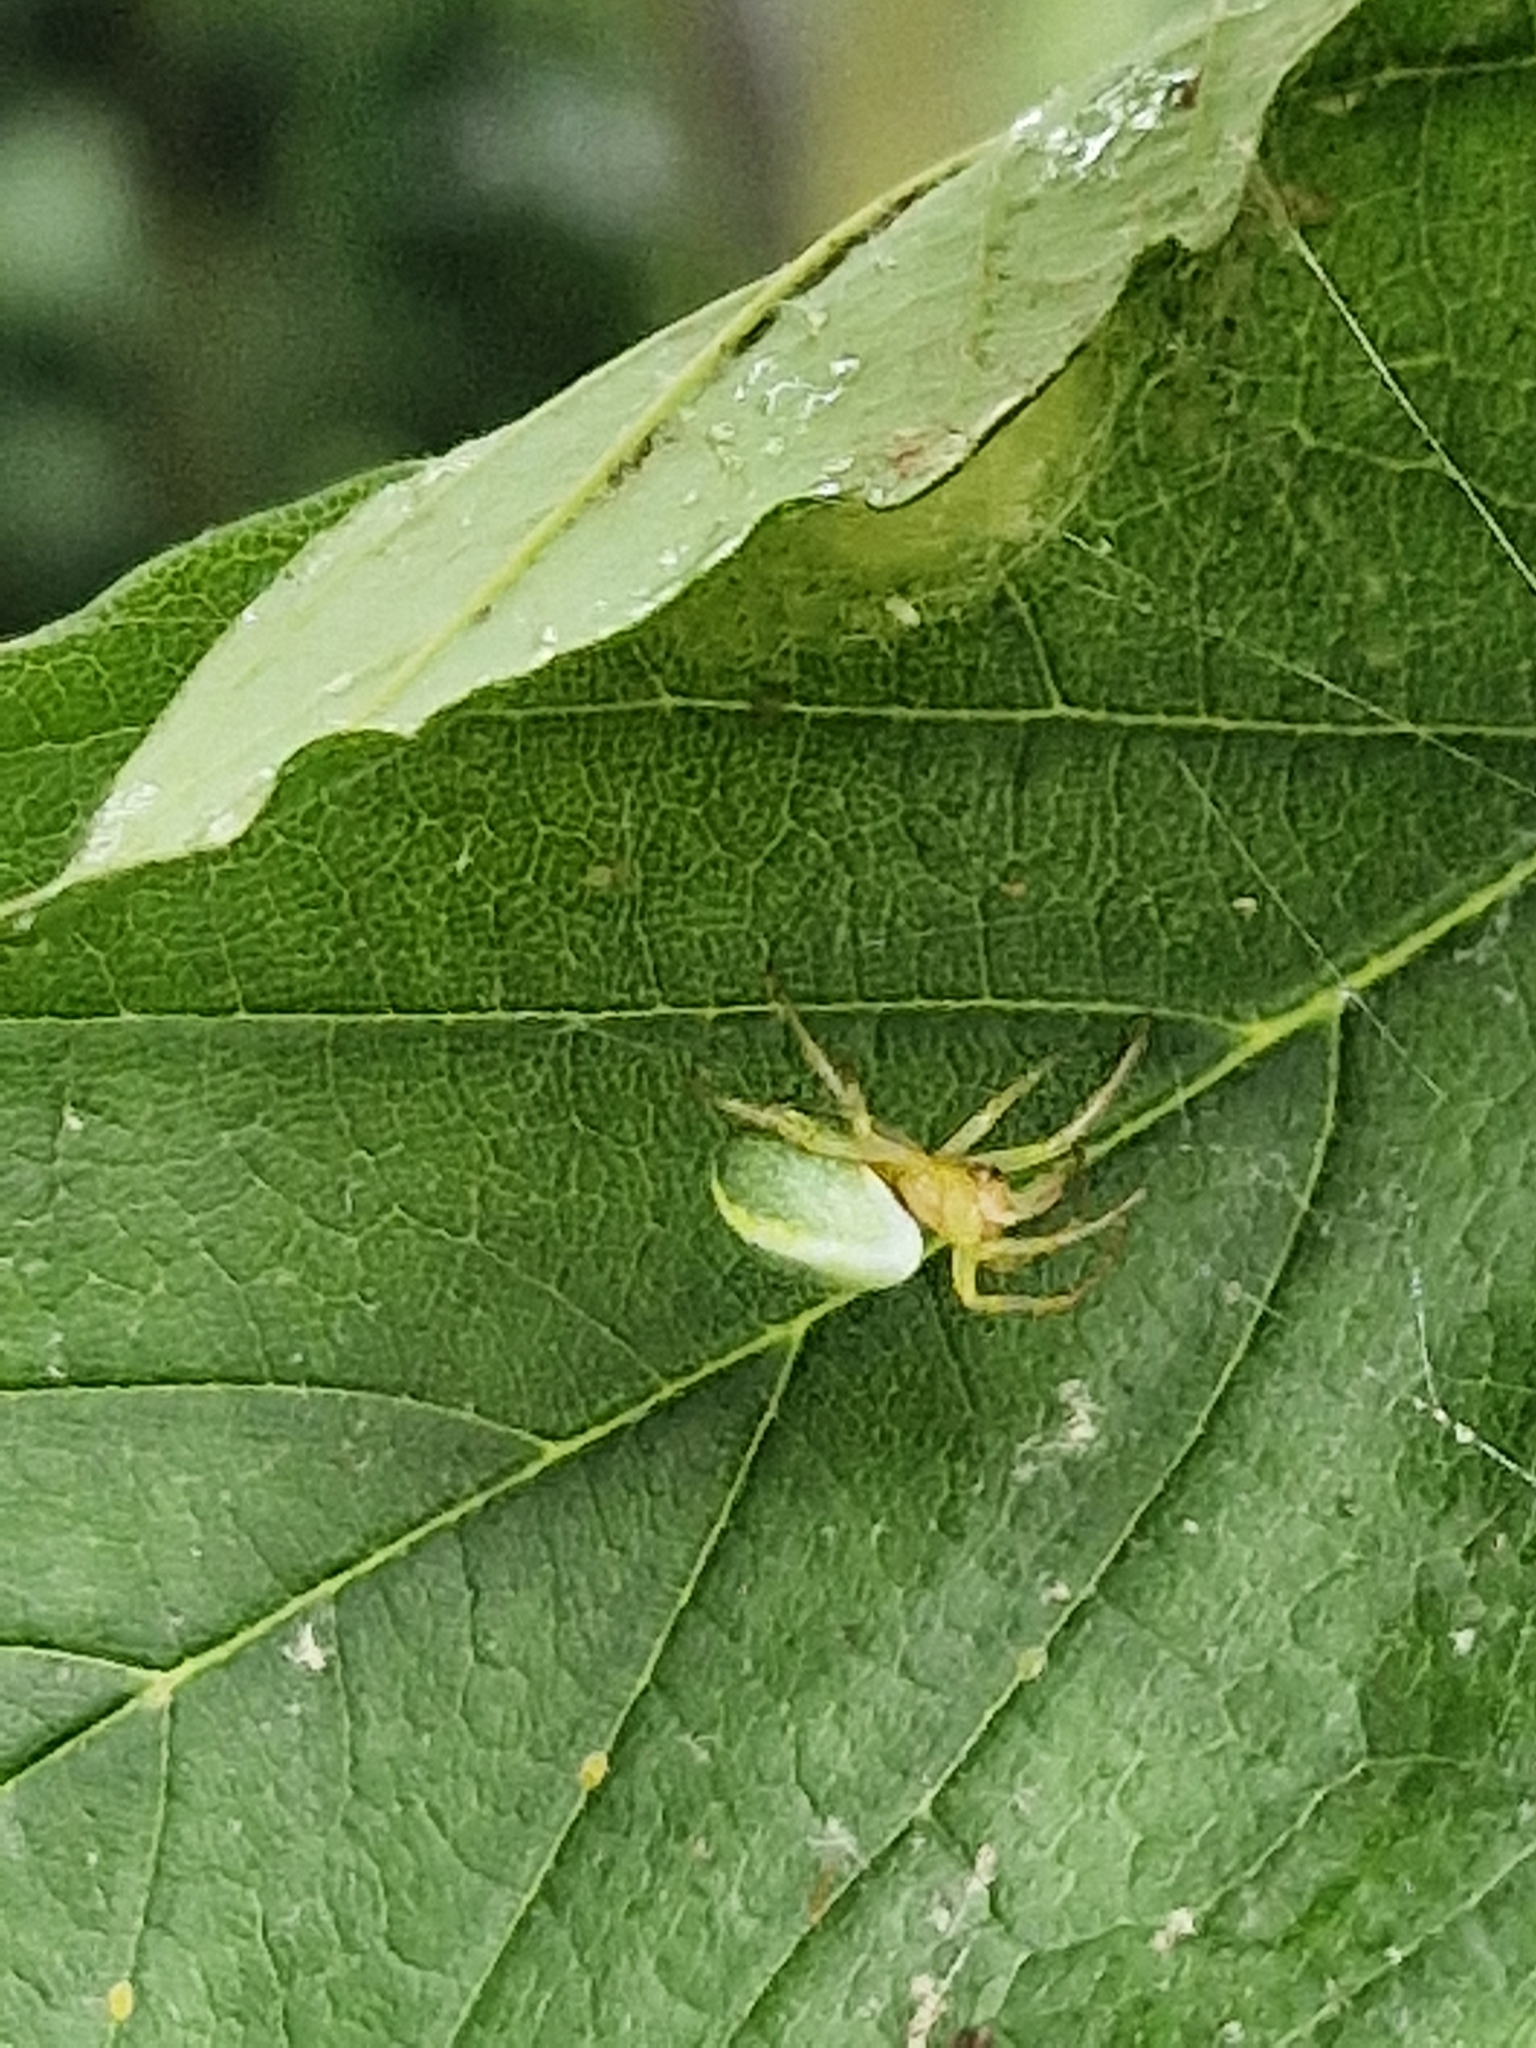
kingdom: Animalia
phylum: Arthropoda
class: Arachnida
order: Araneae
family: Araneidae
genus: Araniella
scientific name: Araniella
